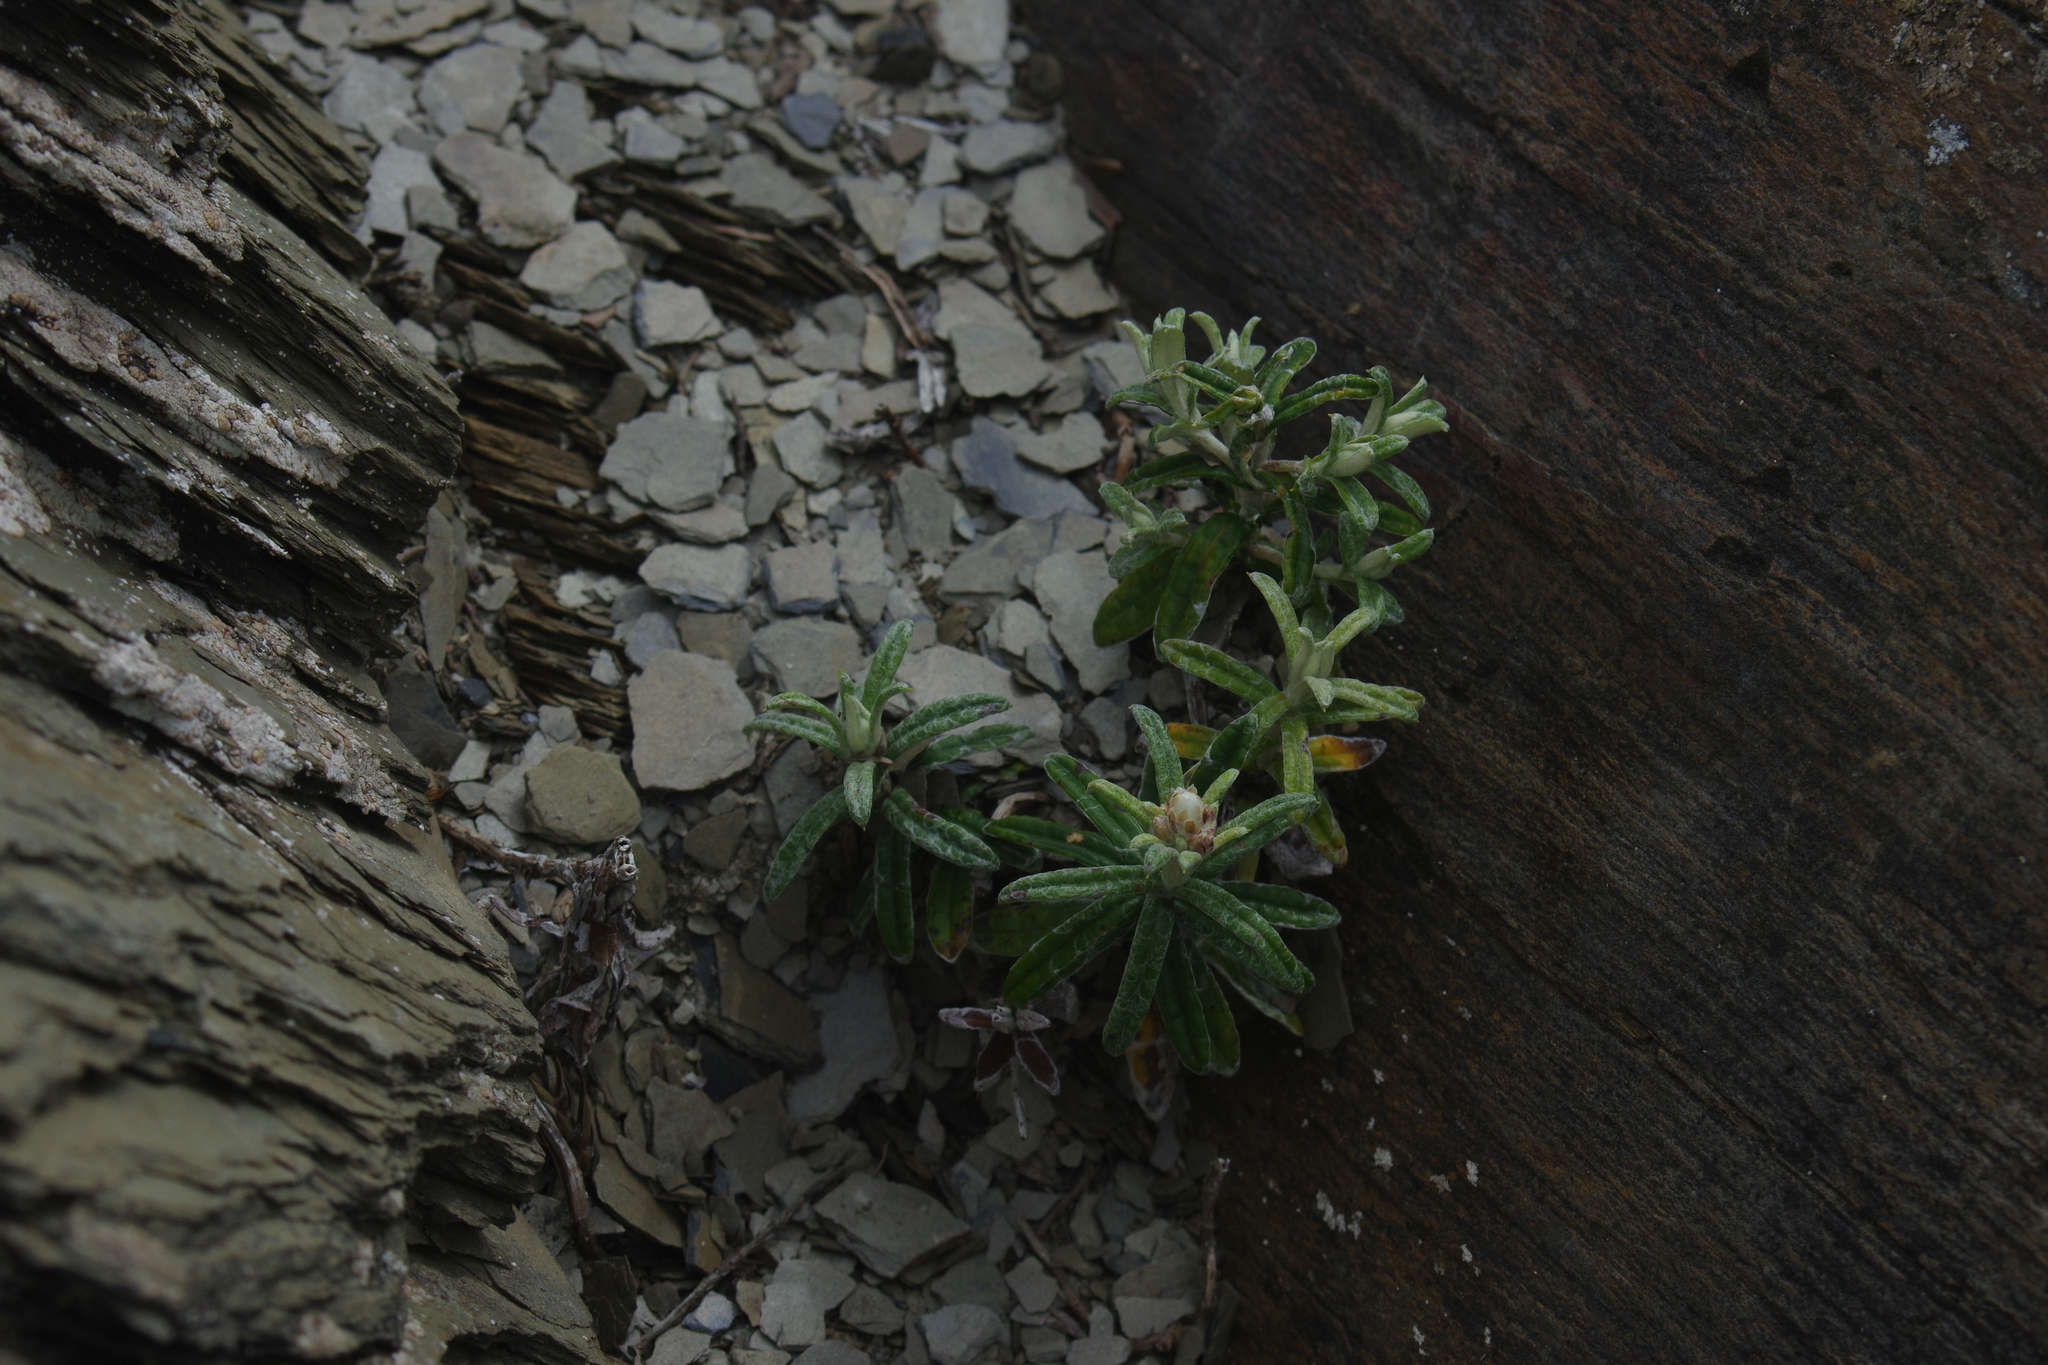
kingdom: Plantae
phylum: Tracheophyta
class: Magnoliopsida
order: Asterales
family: Asteraceae
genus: Anaphalis
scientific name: Anaphalis morrisonicola
